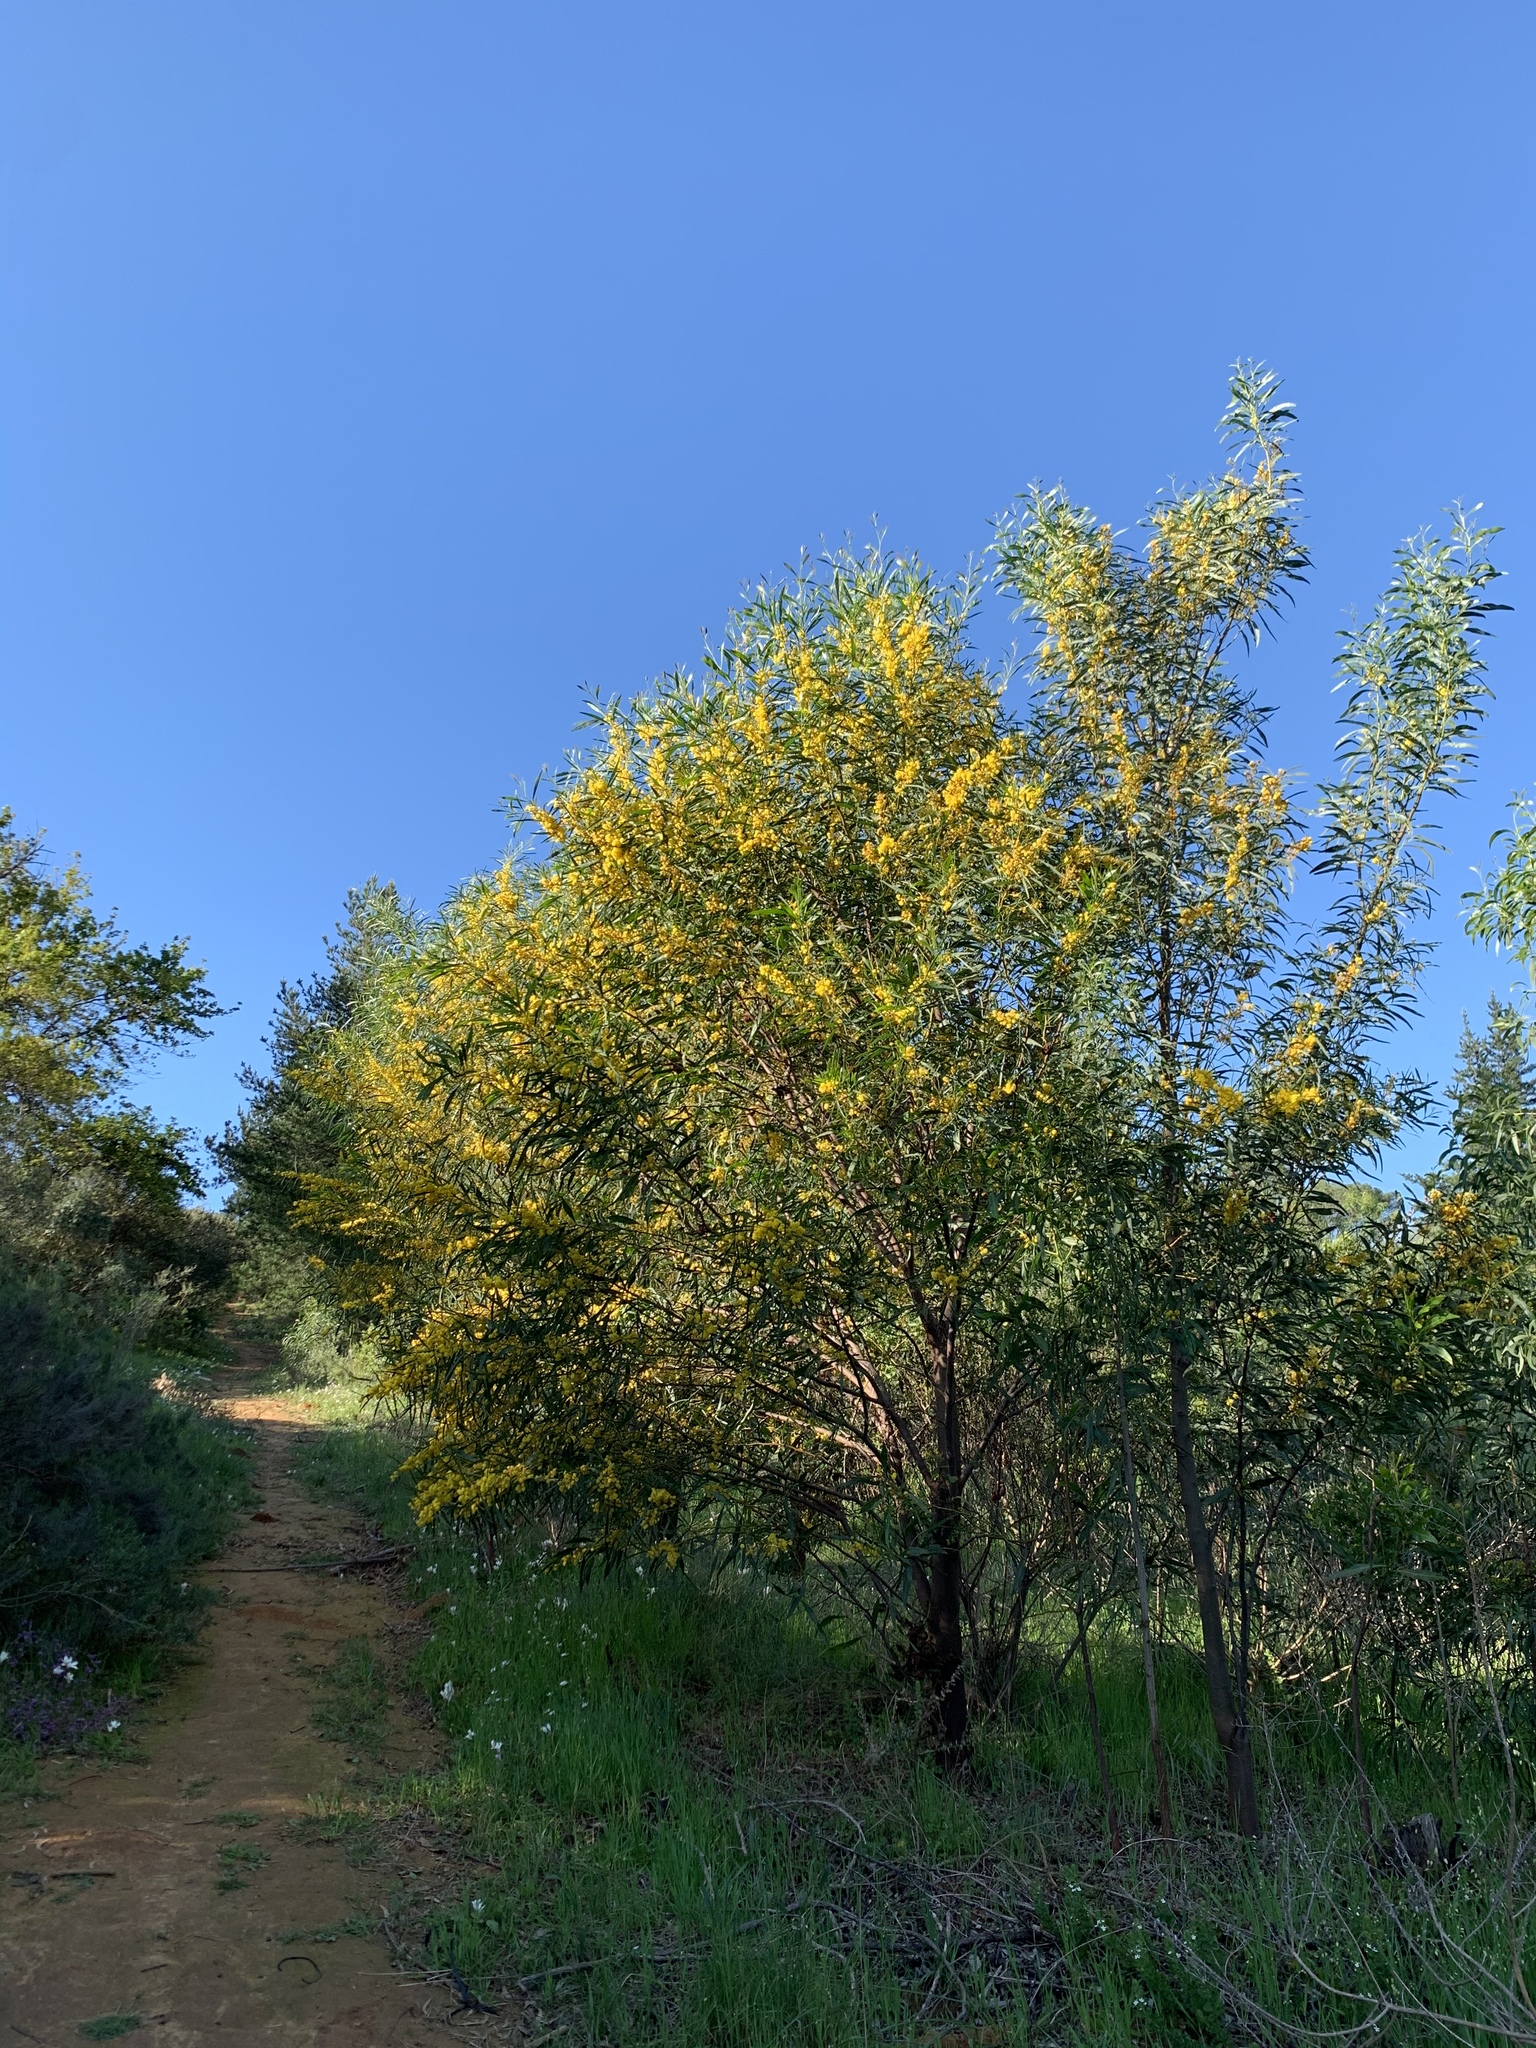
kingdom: Plantae
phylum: Tracheophyta
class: Magnoliopsida
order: Fabales
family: Fabaceae
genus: Acacia
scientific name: Acacia saligna
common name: Orange wattle
